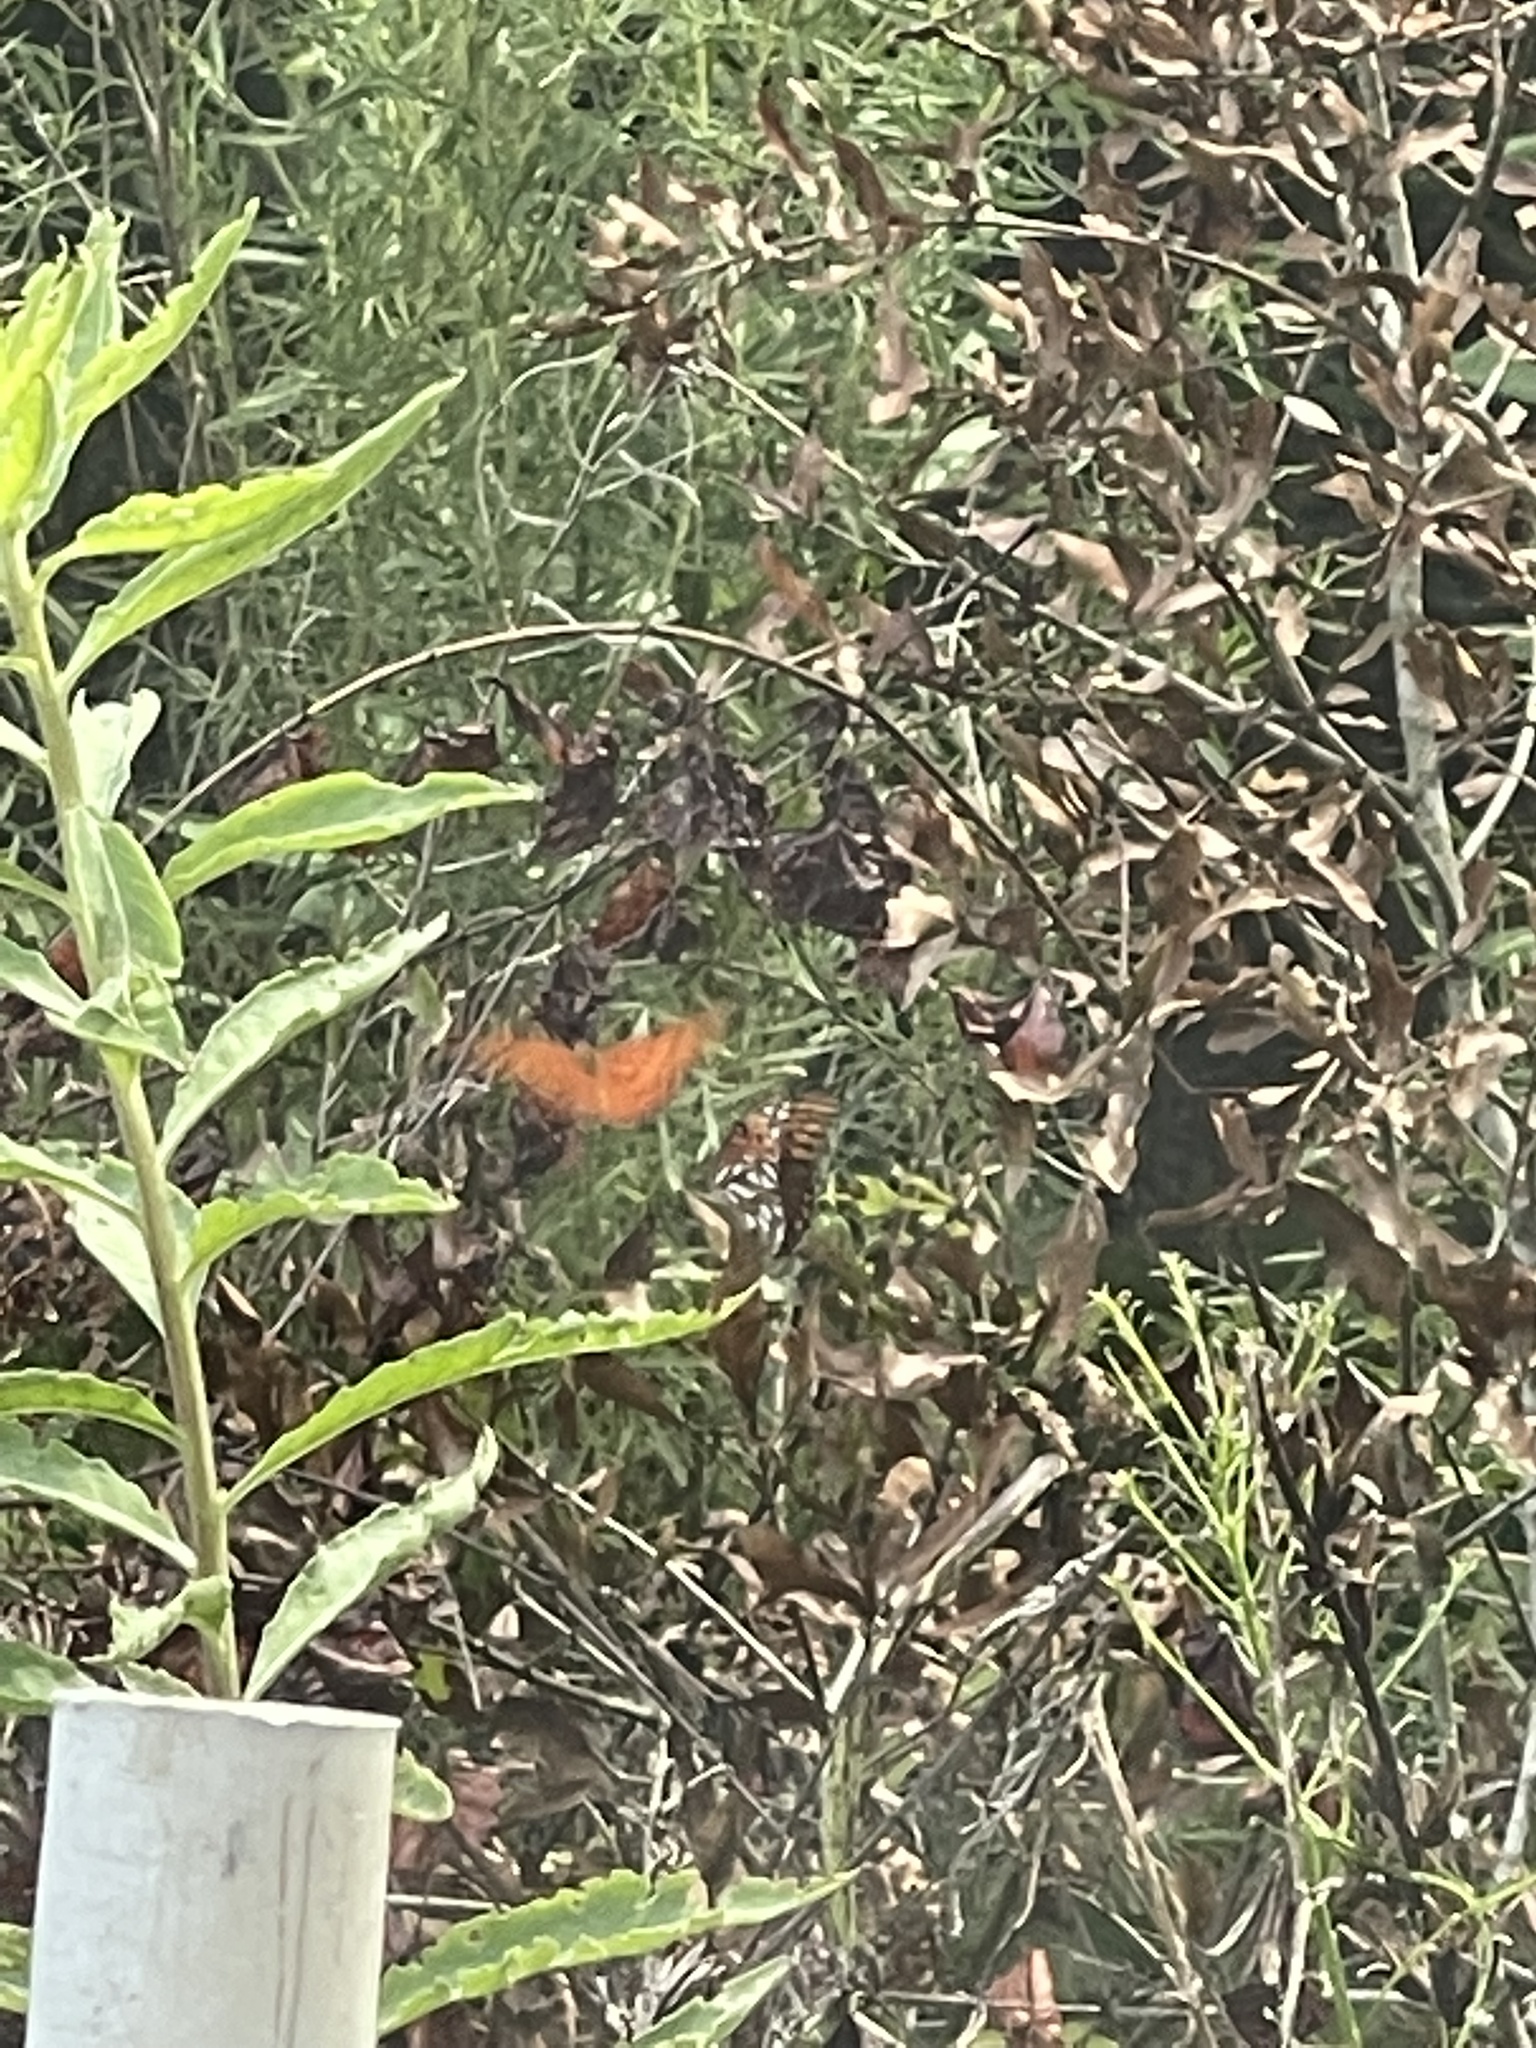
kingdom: Animalia
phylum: Arthropoda
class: Insecta
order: Lepidoptera
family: Nymphalidae
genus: Dione
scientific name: Dione vanillae
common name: Gulf fritillary
